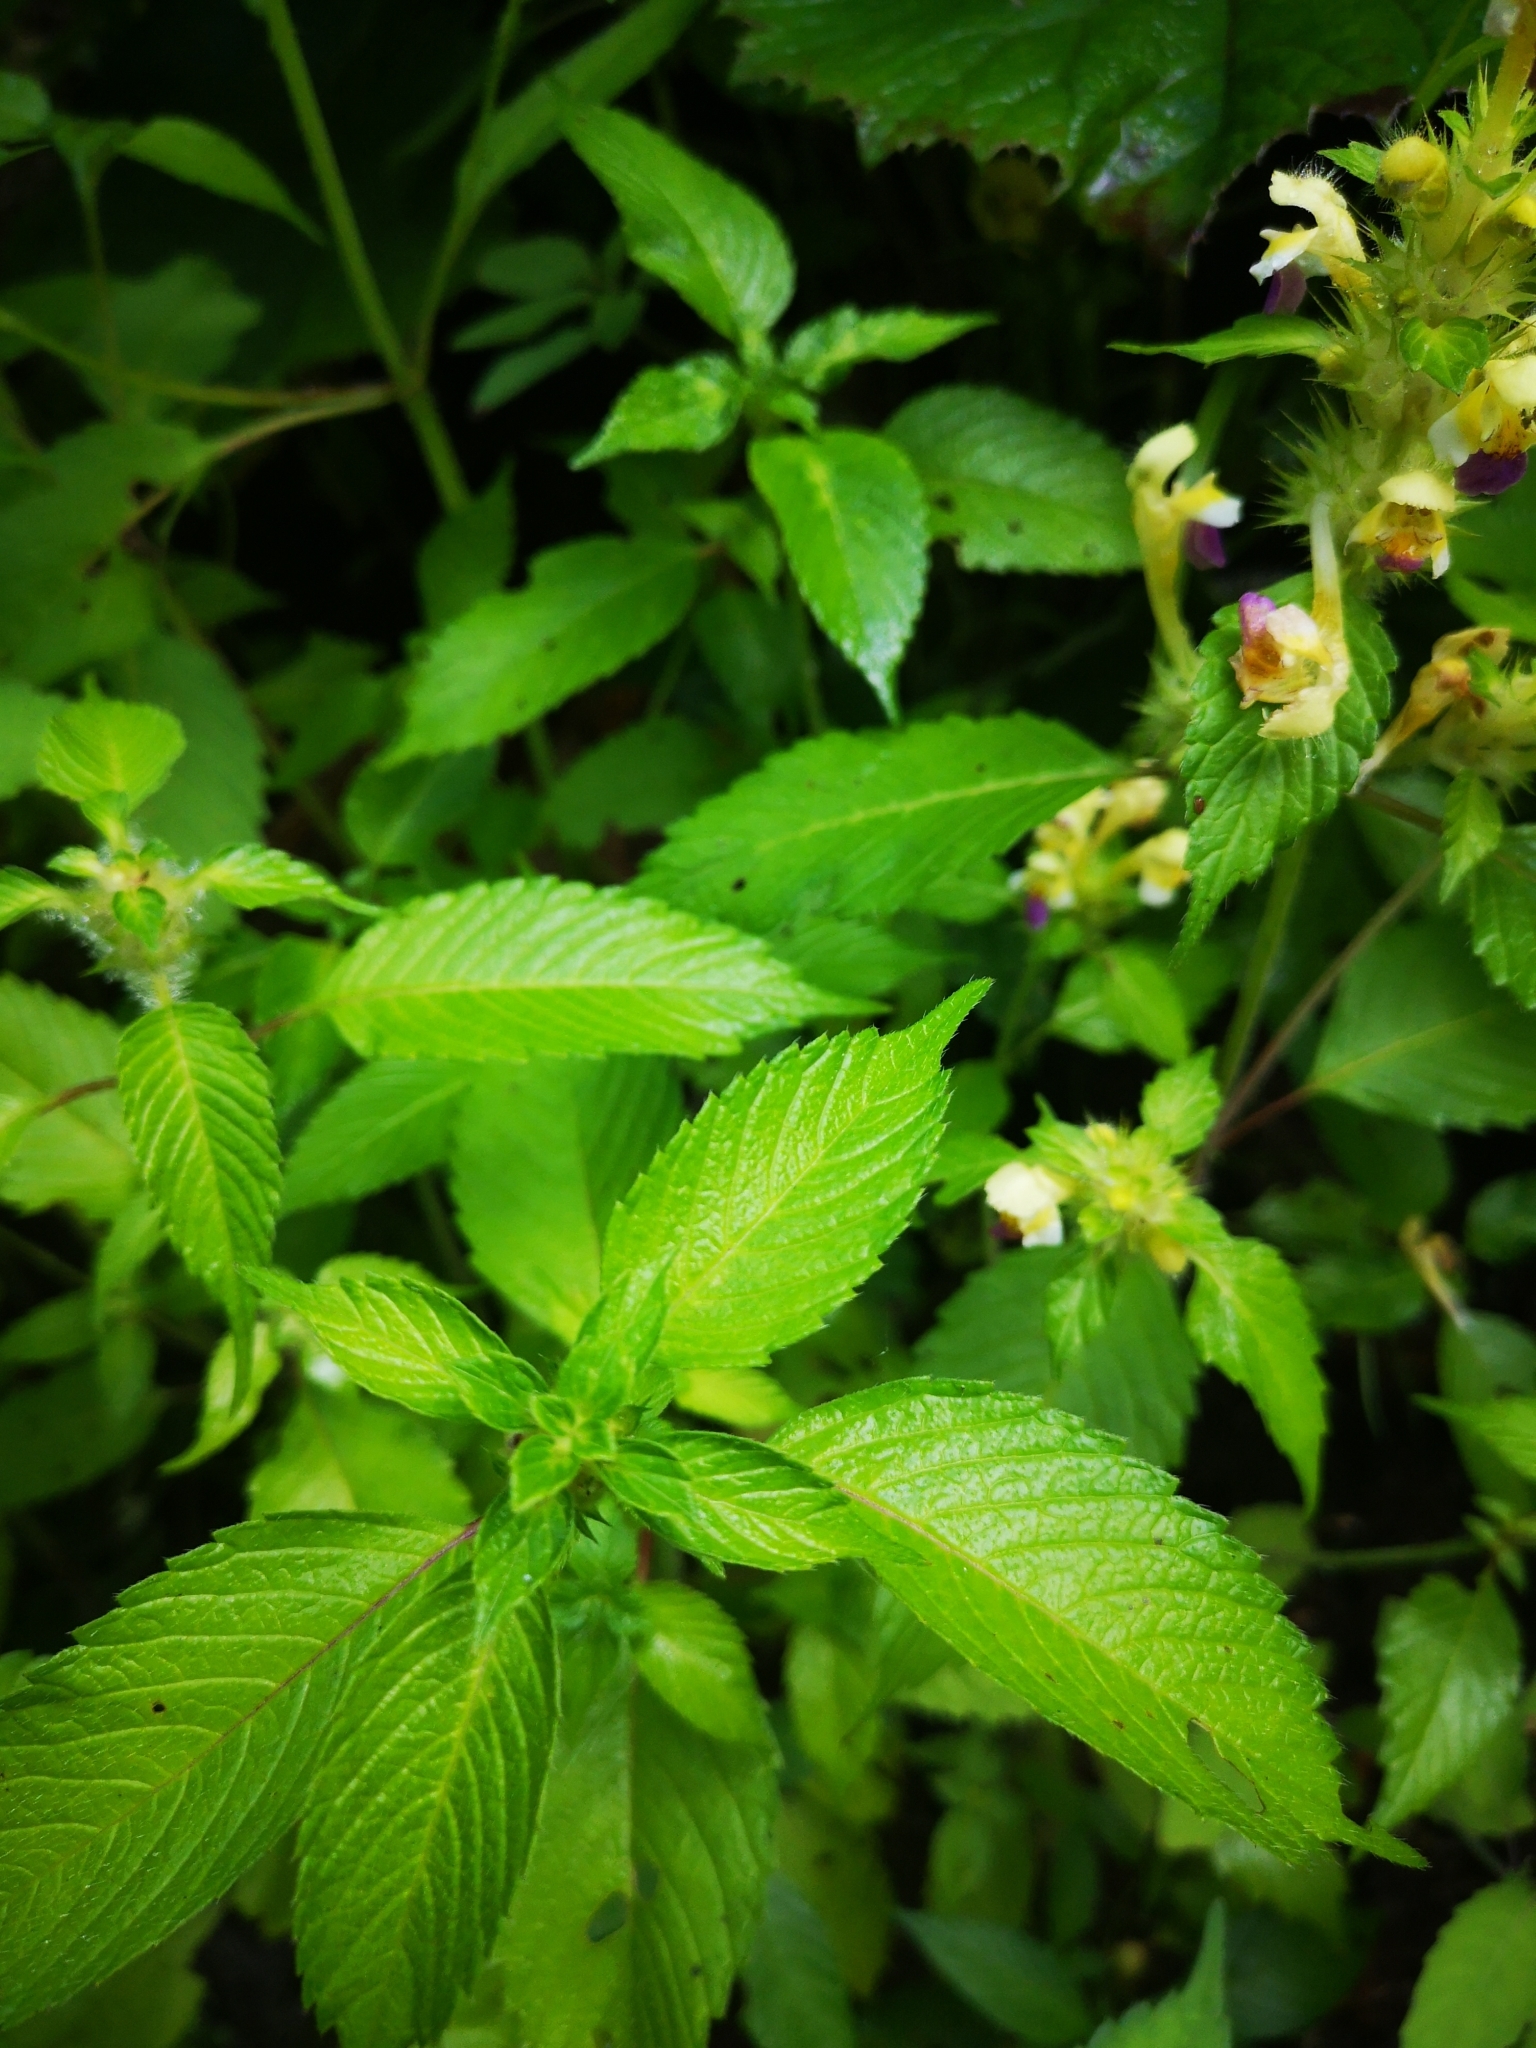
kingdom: Plantae
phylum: Tracheophyta
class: Magnoliopsida
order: Lamiales
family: Lamiaceae
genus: Galeopsis
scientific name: Galeopsis speciosa
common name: Large-flowered hemp-nettle
